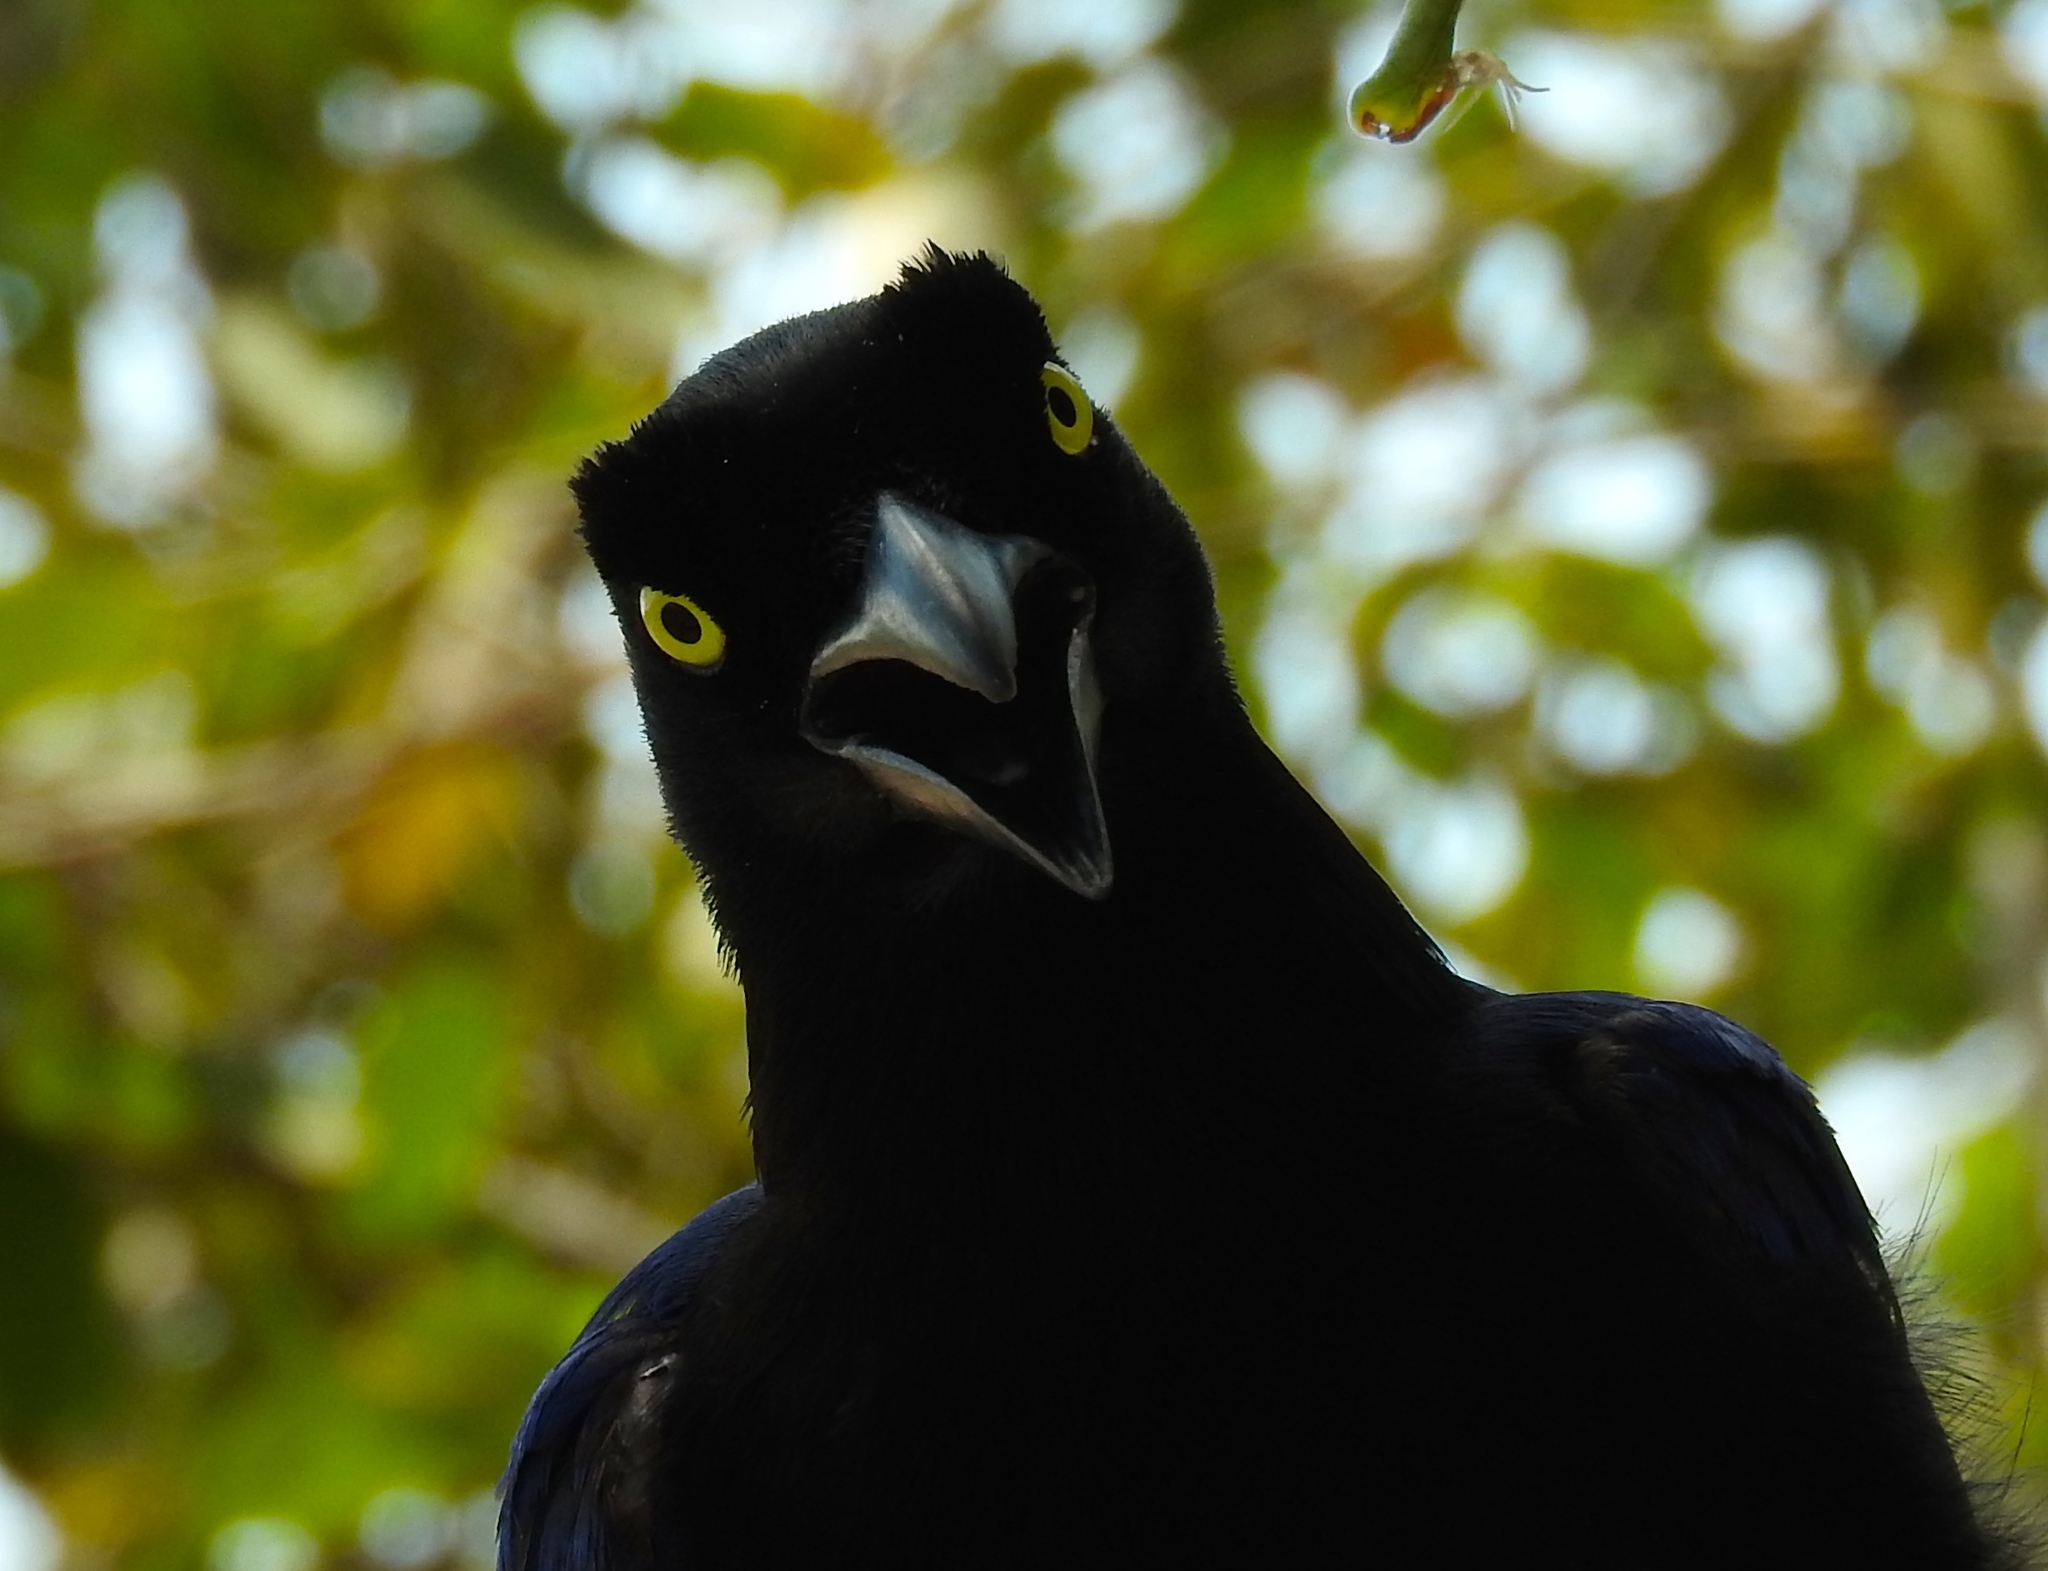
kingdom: Animalia
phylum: Chordata
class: Aves
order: Passeriformes
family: Corvidae
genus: Cyanocorax
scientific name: Cyanocorax beecheii
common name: Purplish-backed jay
